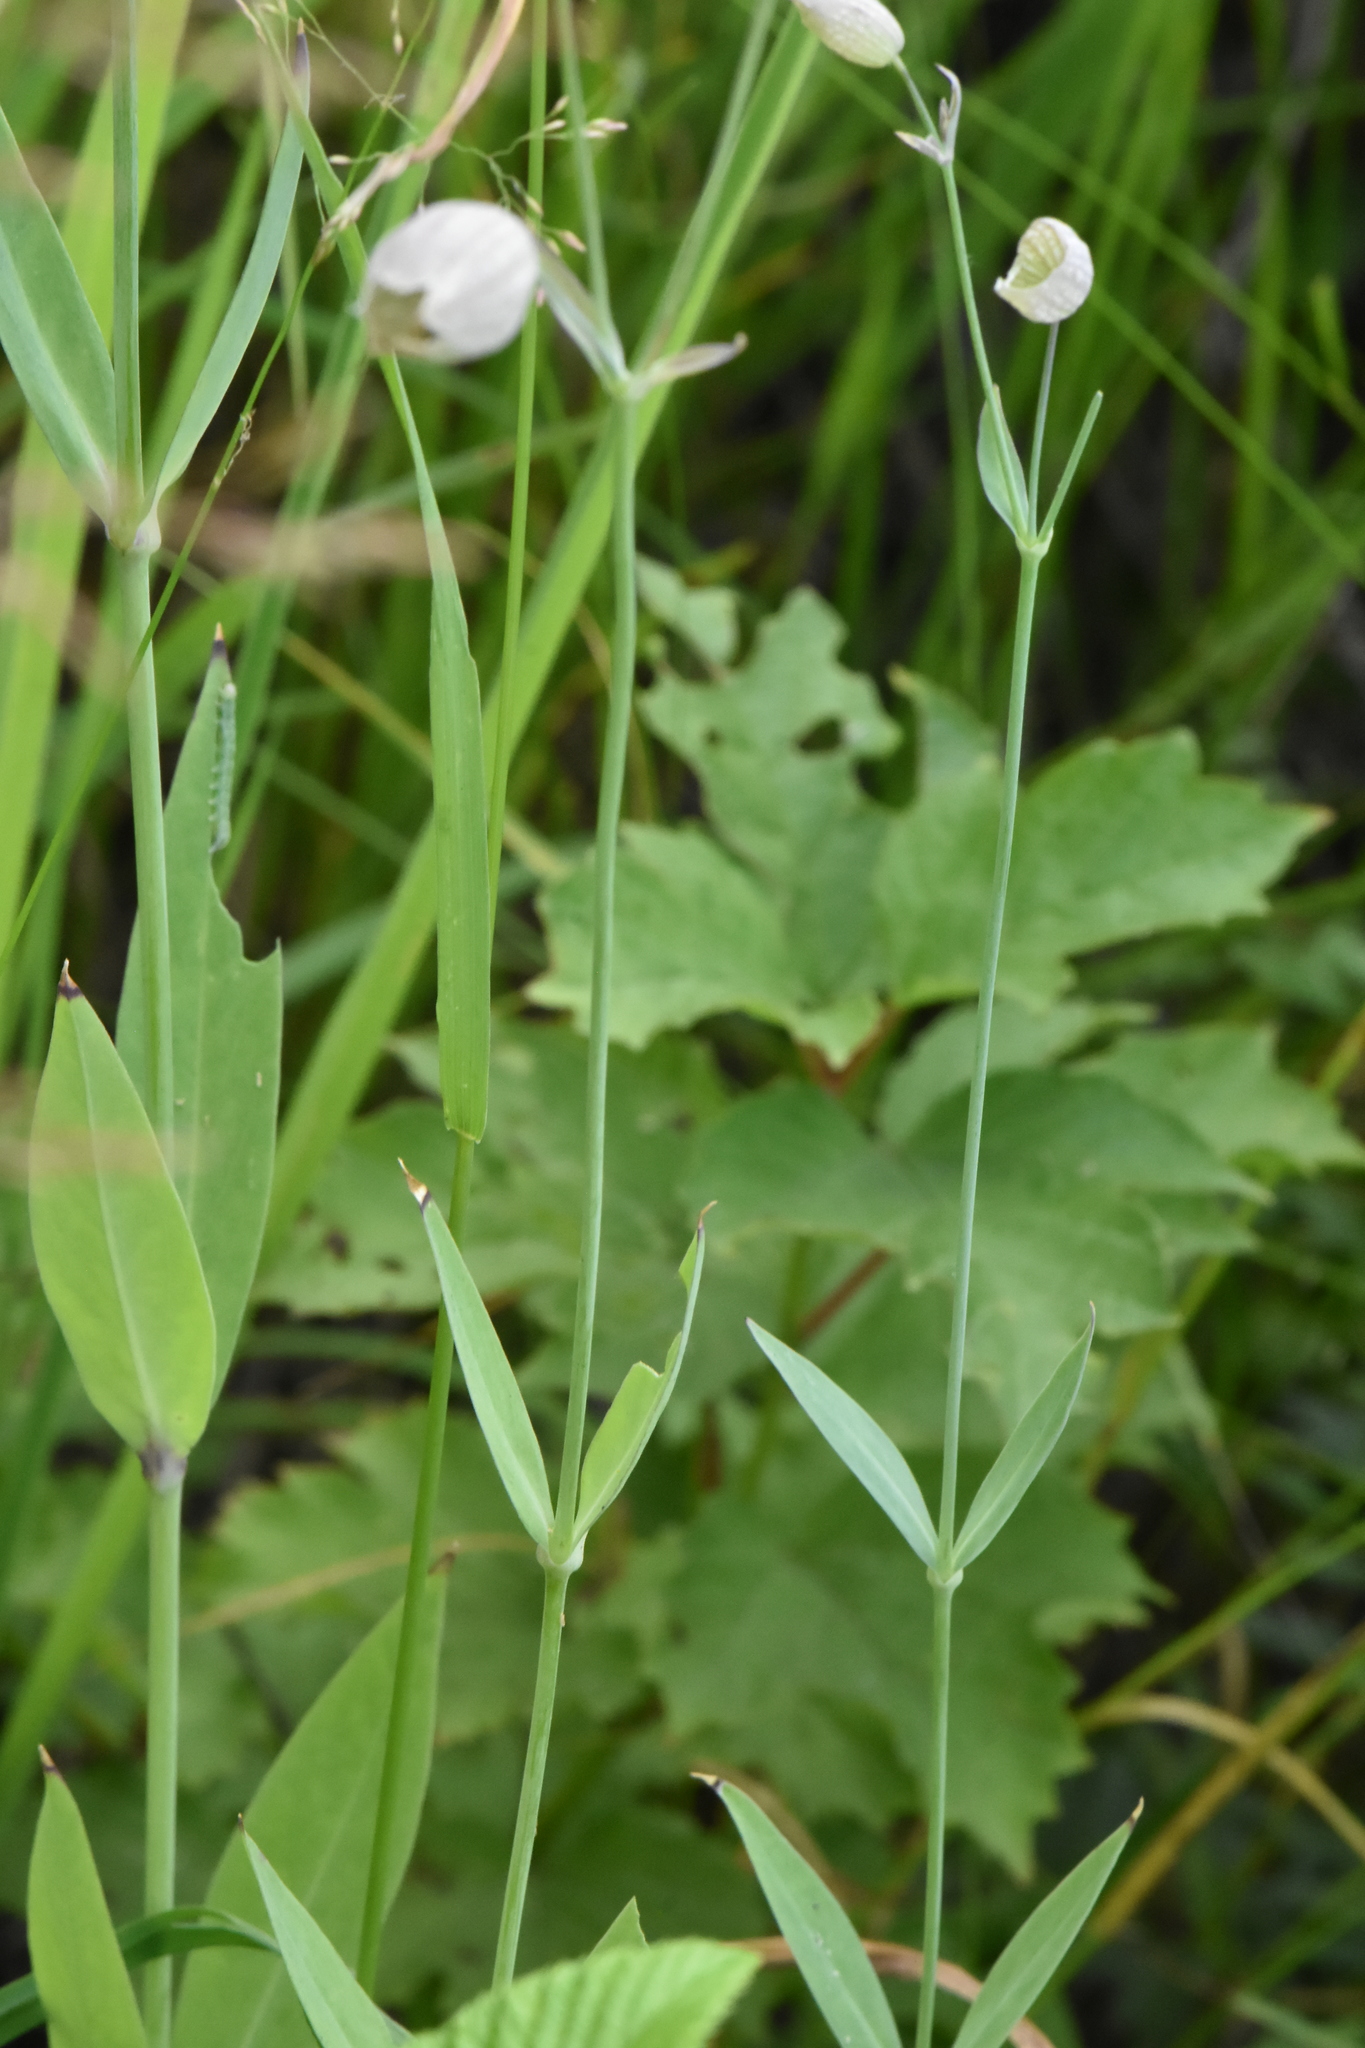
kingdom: Plantae
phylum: Tracheophyta
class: Magnoliopsida
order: Caryophyllales
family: Caryophyllaceae
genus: Silene
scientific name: Silene vulgaris
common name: Bladder campion
